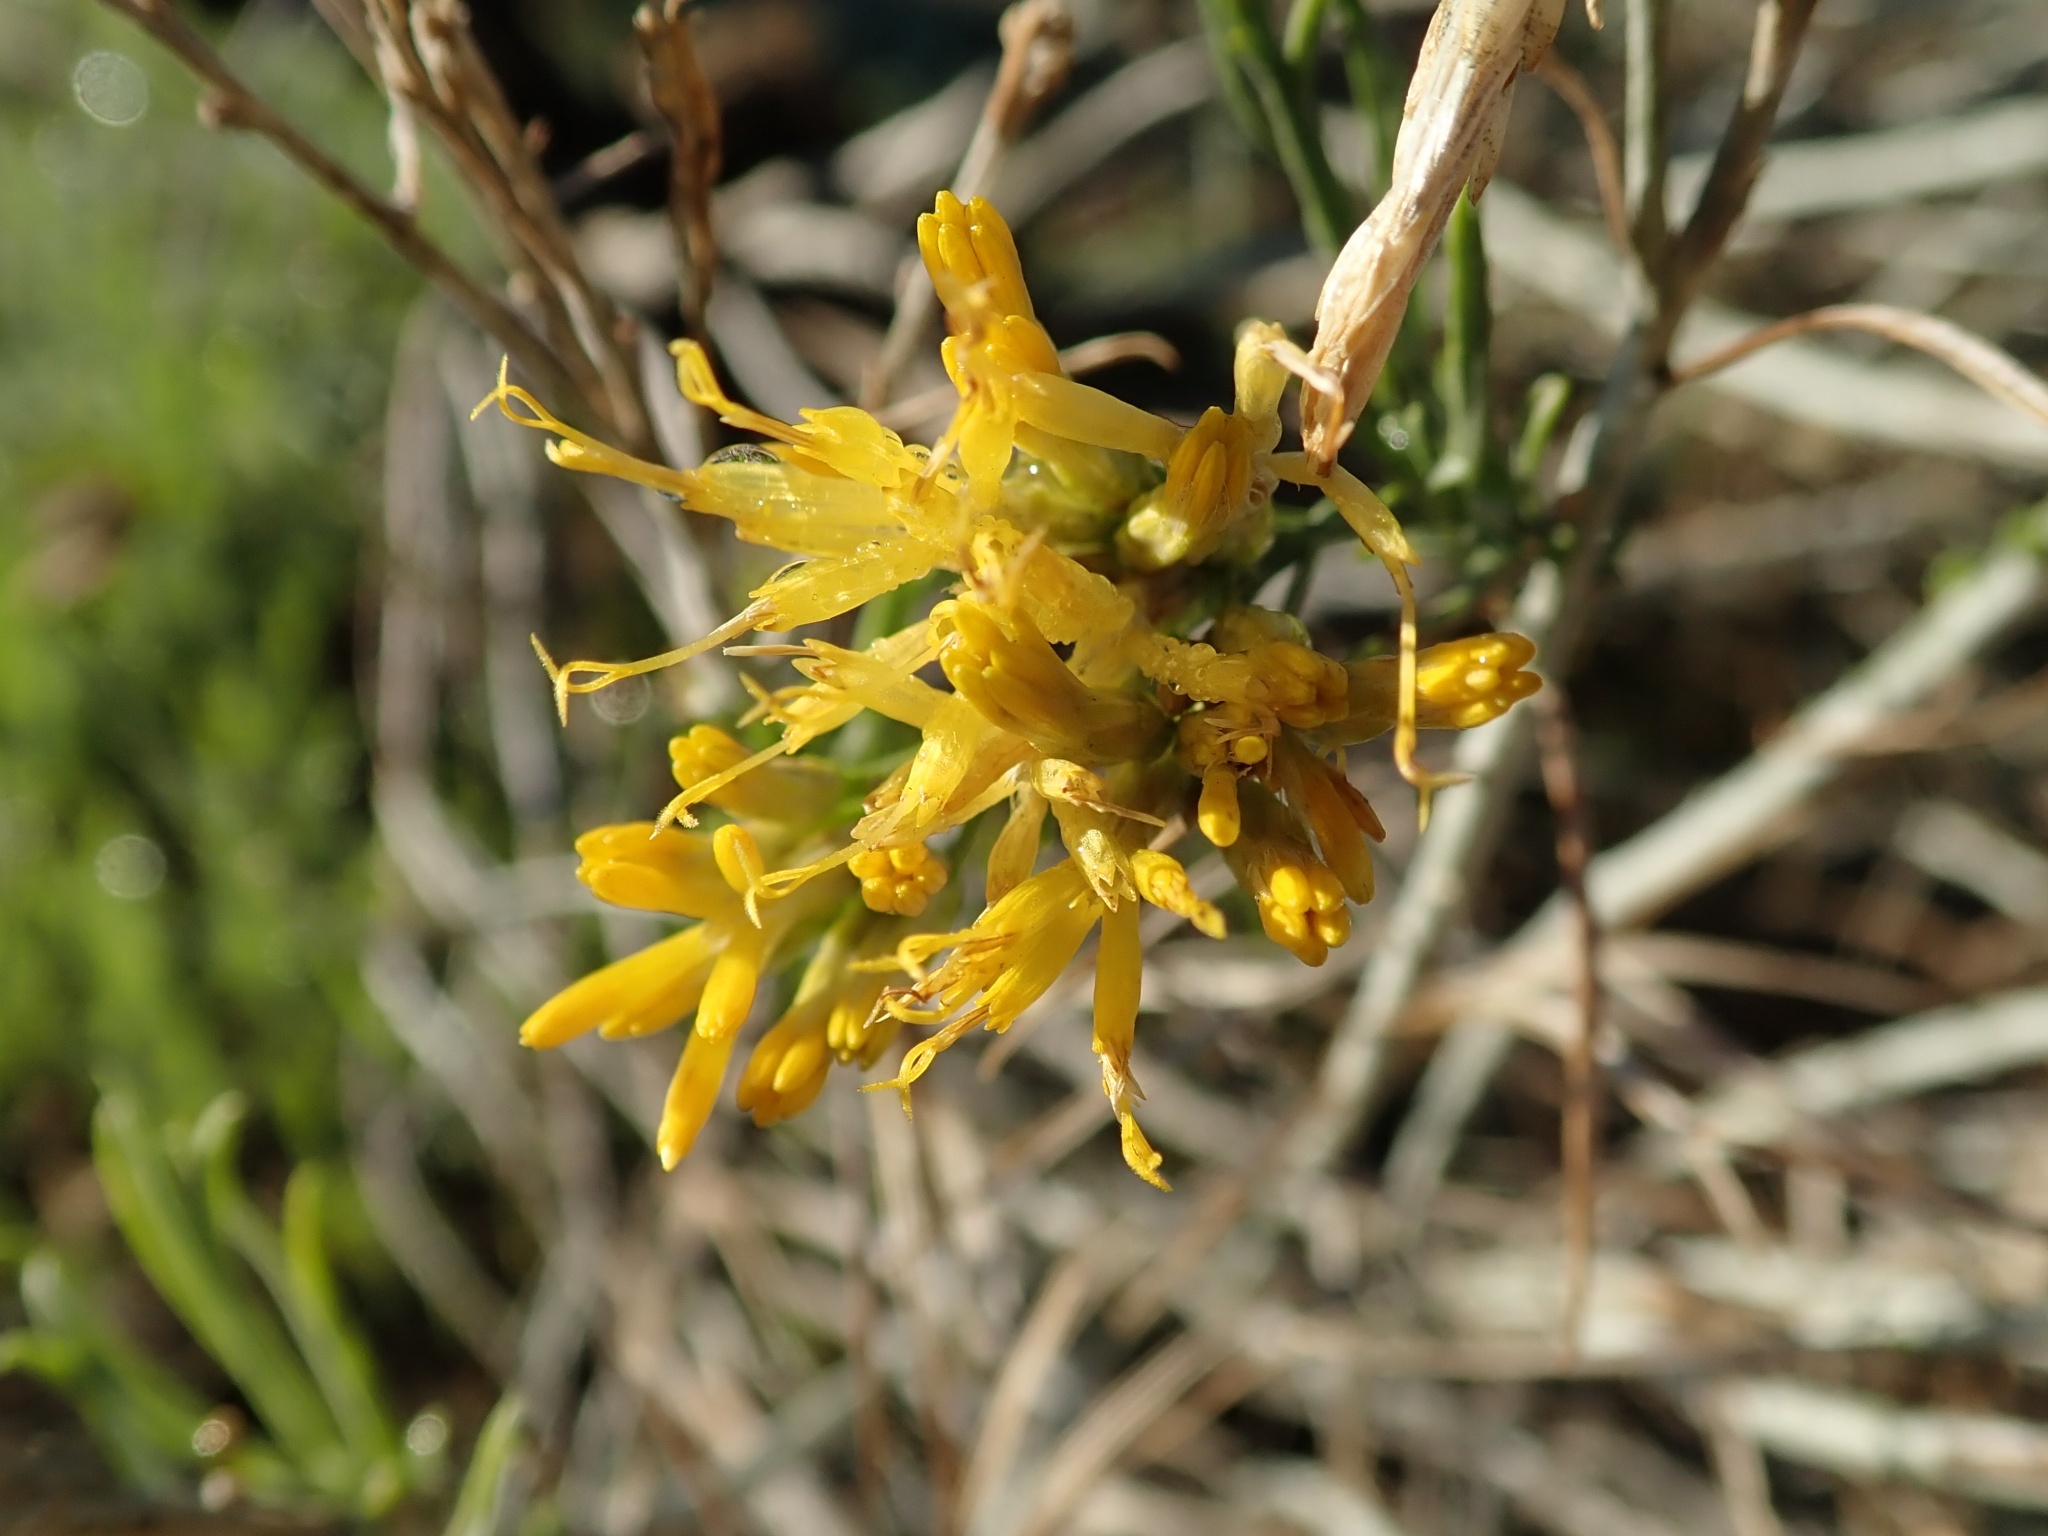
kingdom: Plantae
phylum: Tracheophyta
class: Magnoliopsida
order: Asterales
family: Asteraceae
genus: Ericameria
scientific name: Ericameria nauseosa
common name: Rubber rabbitbrush
